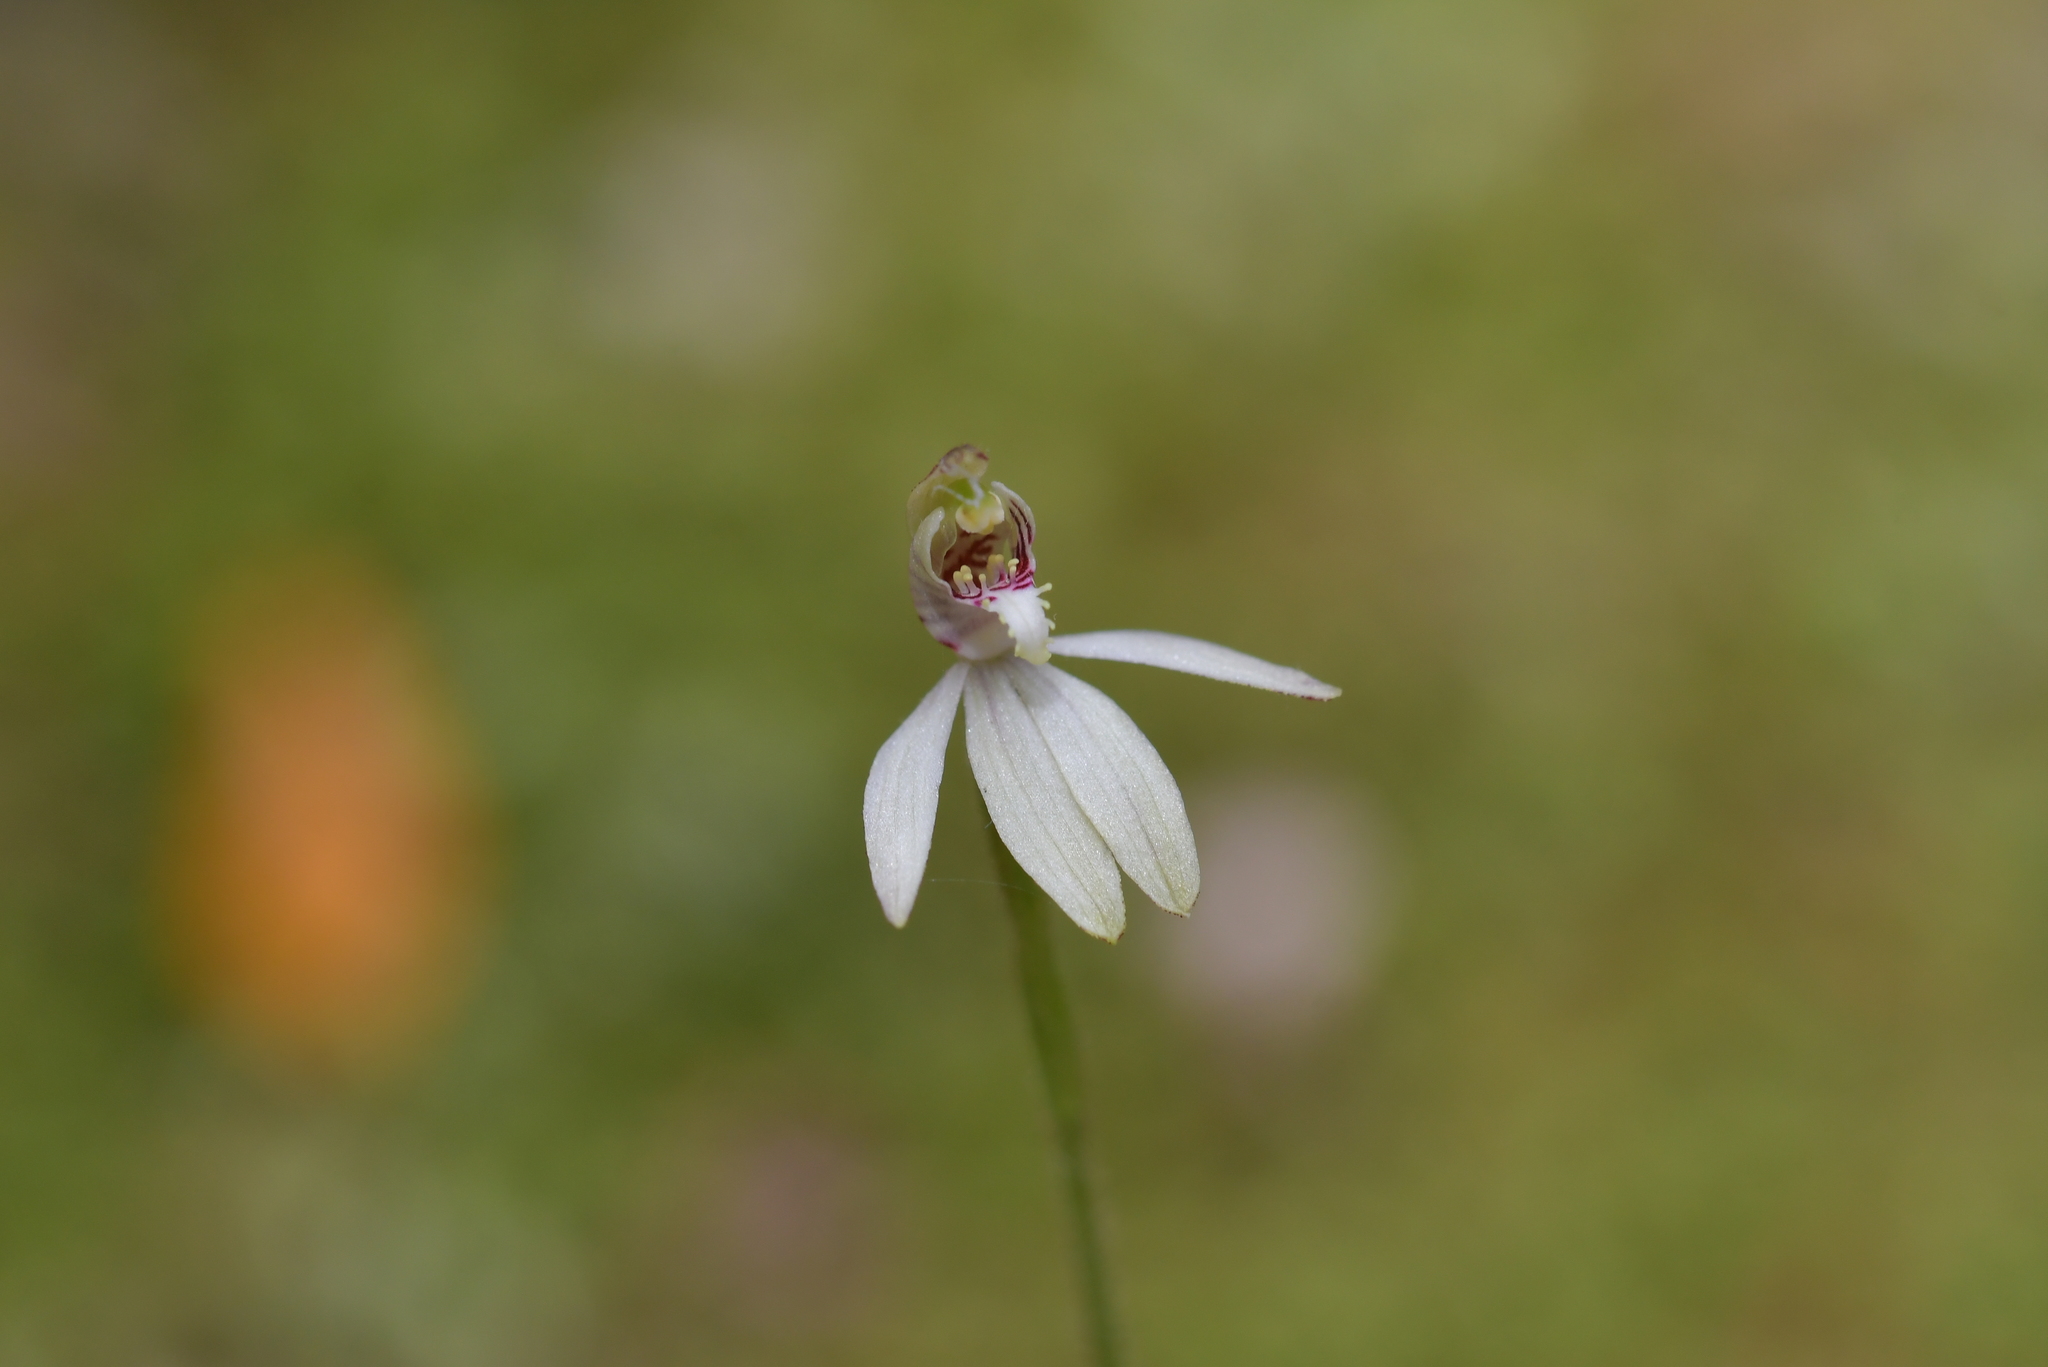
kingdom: Plantae
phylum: Tracheophyta
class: Liliopsida
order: Asparagales
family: Orchidaceae
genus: Caladenia
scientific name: Caladenia chlorostyla
